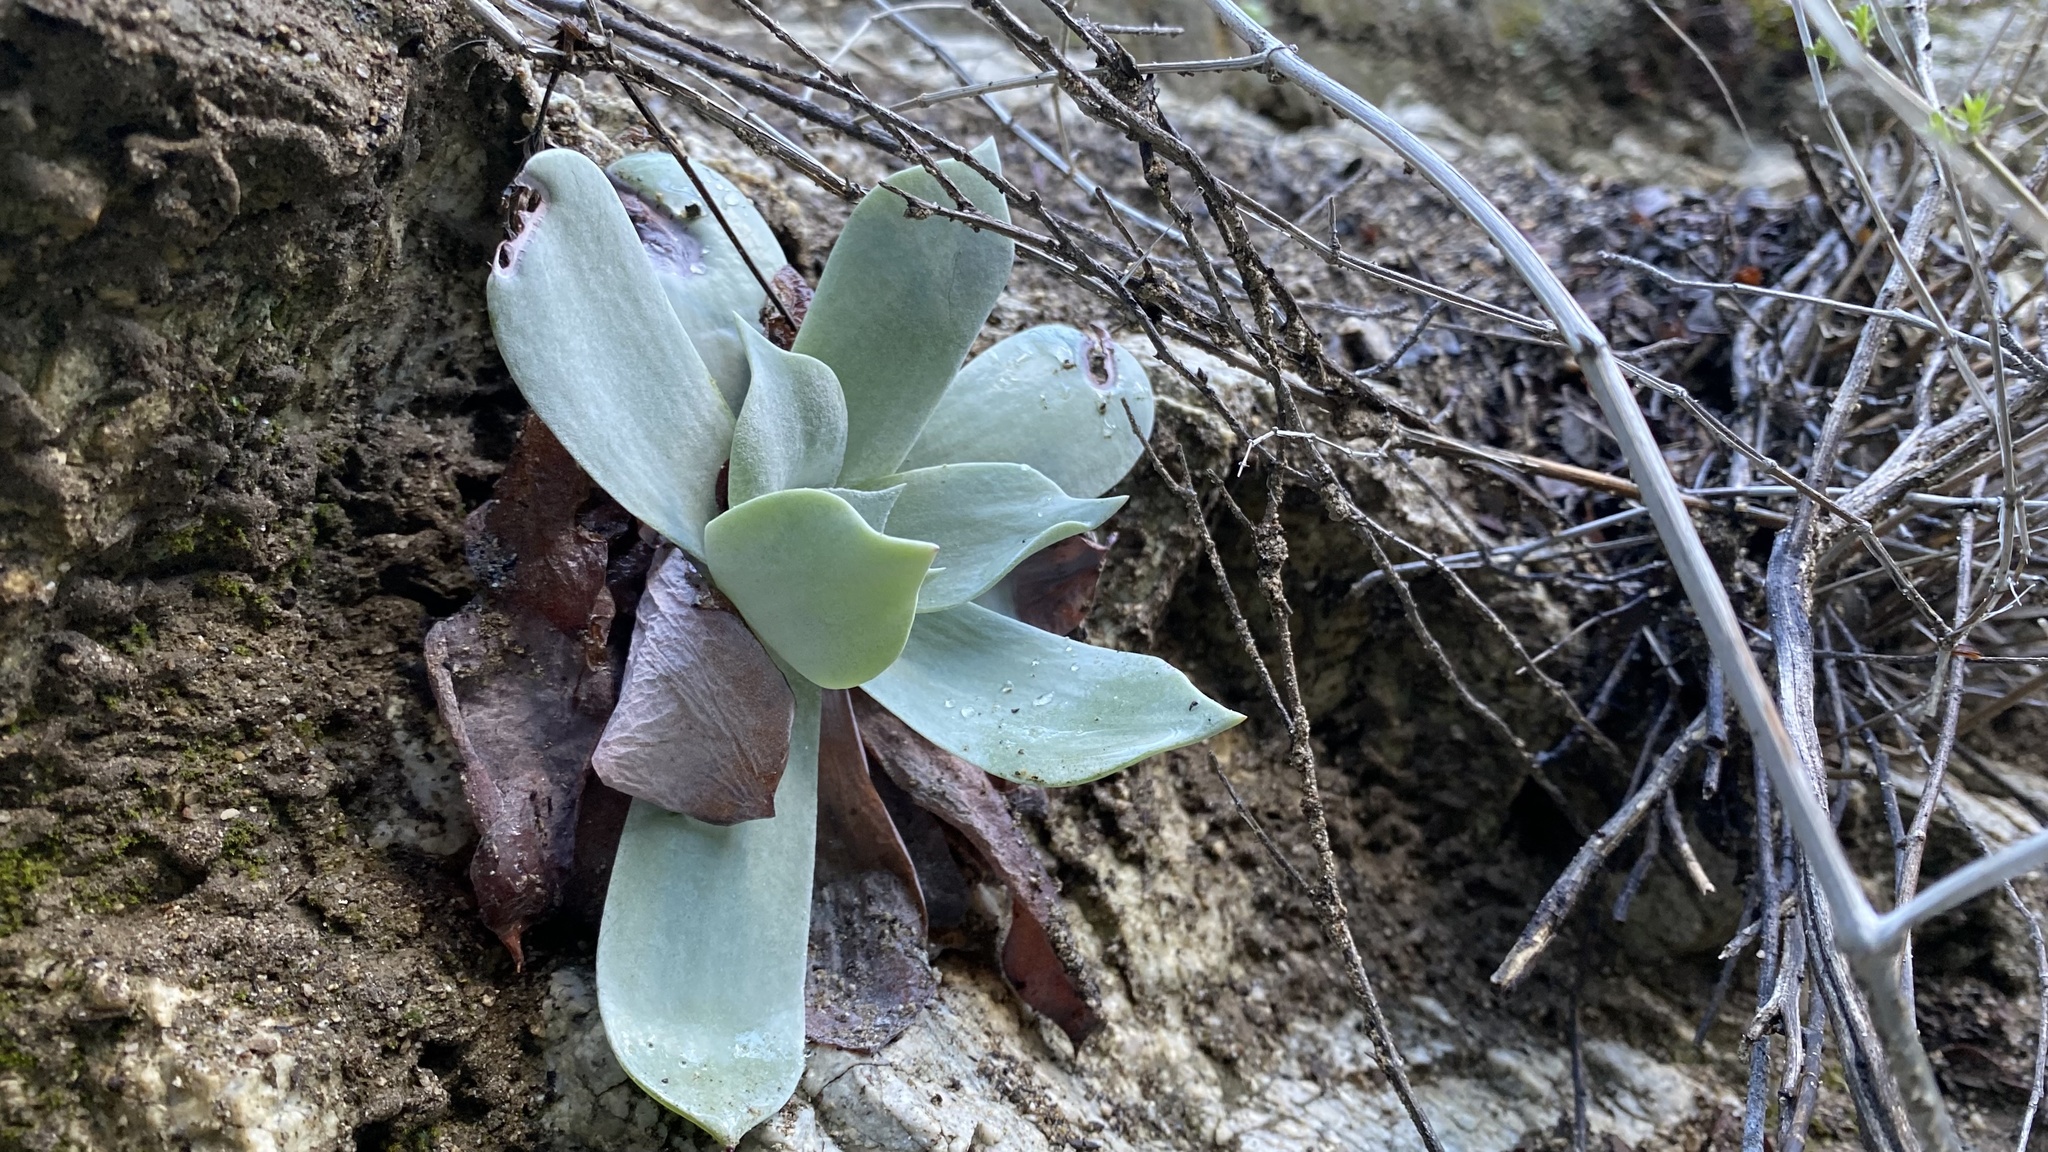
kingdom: Plantae
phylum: Tracheophyta
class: Magnoliopsida
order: Saxifragales
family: Crassulaceae
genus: Dudleya
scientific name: Dudleya pulverulenta
